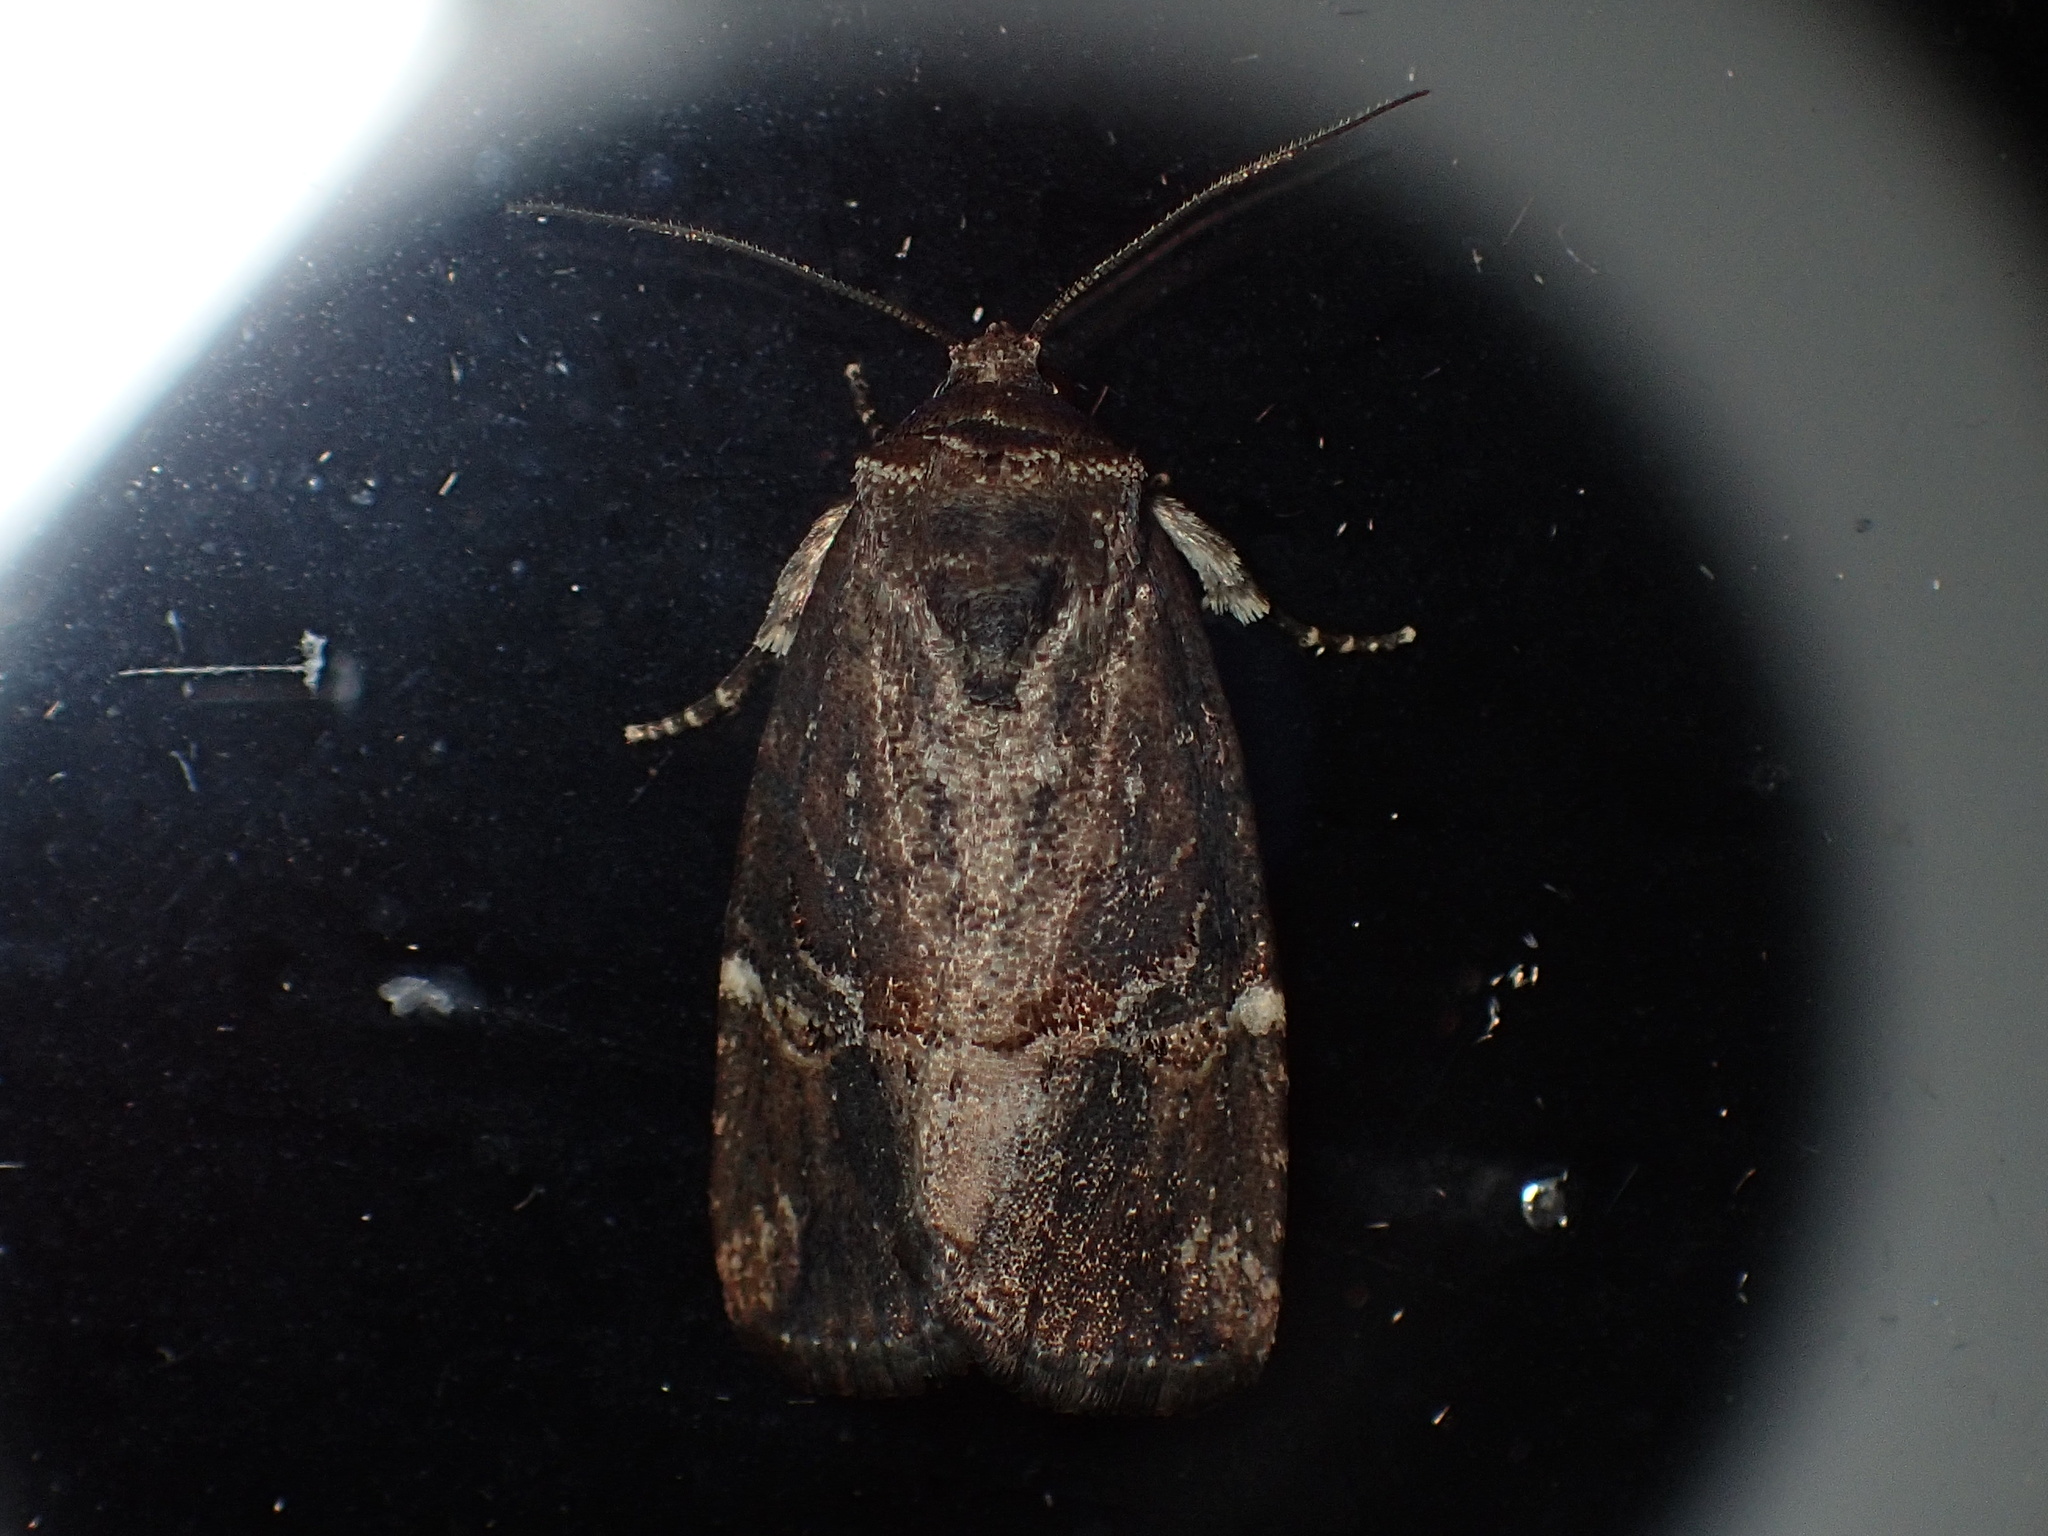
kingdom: Animalia
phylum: Arthropoda
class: Insecta
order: Lepidoptera
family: Noctuidae
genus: Elaphria
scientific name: Elaphria versicolor
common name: Fir harlequin
